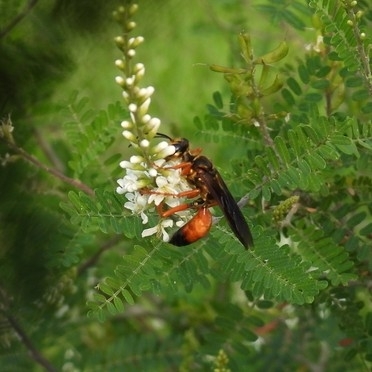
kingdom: Animalia
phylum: Arthropoda
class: Insecta
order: Hymenoptera
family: Sphecidae
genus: Sphex
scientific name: Sphex ichneumoneus
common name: Great golden digger wasp
